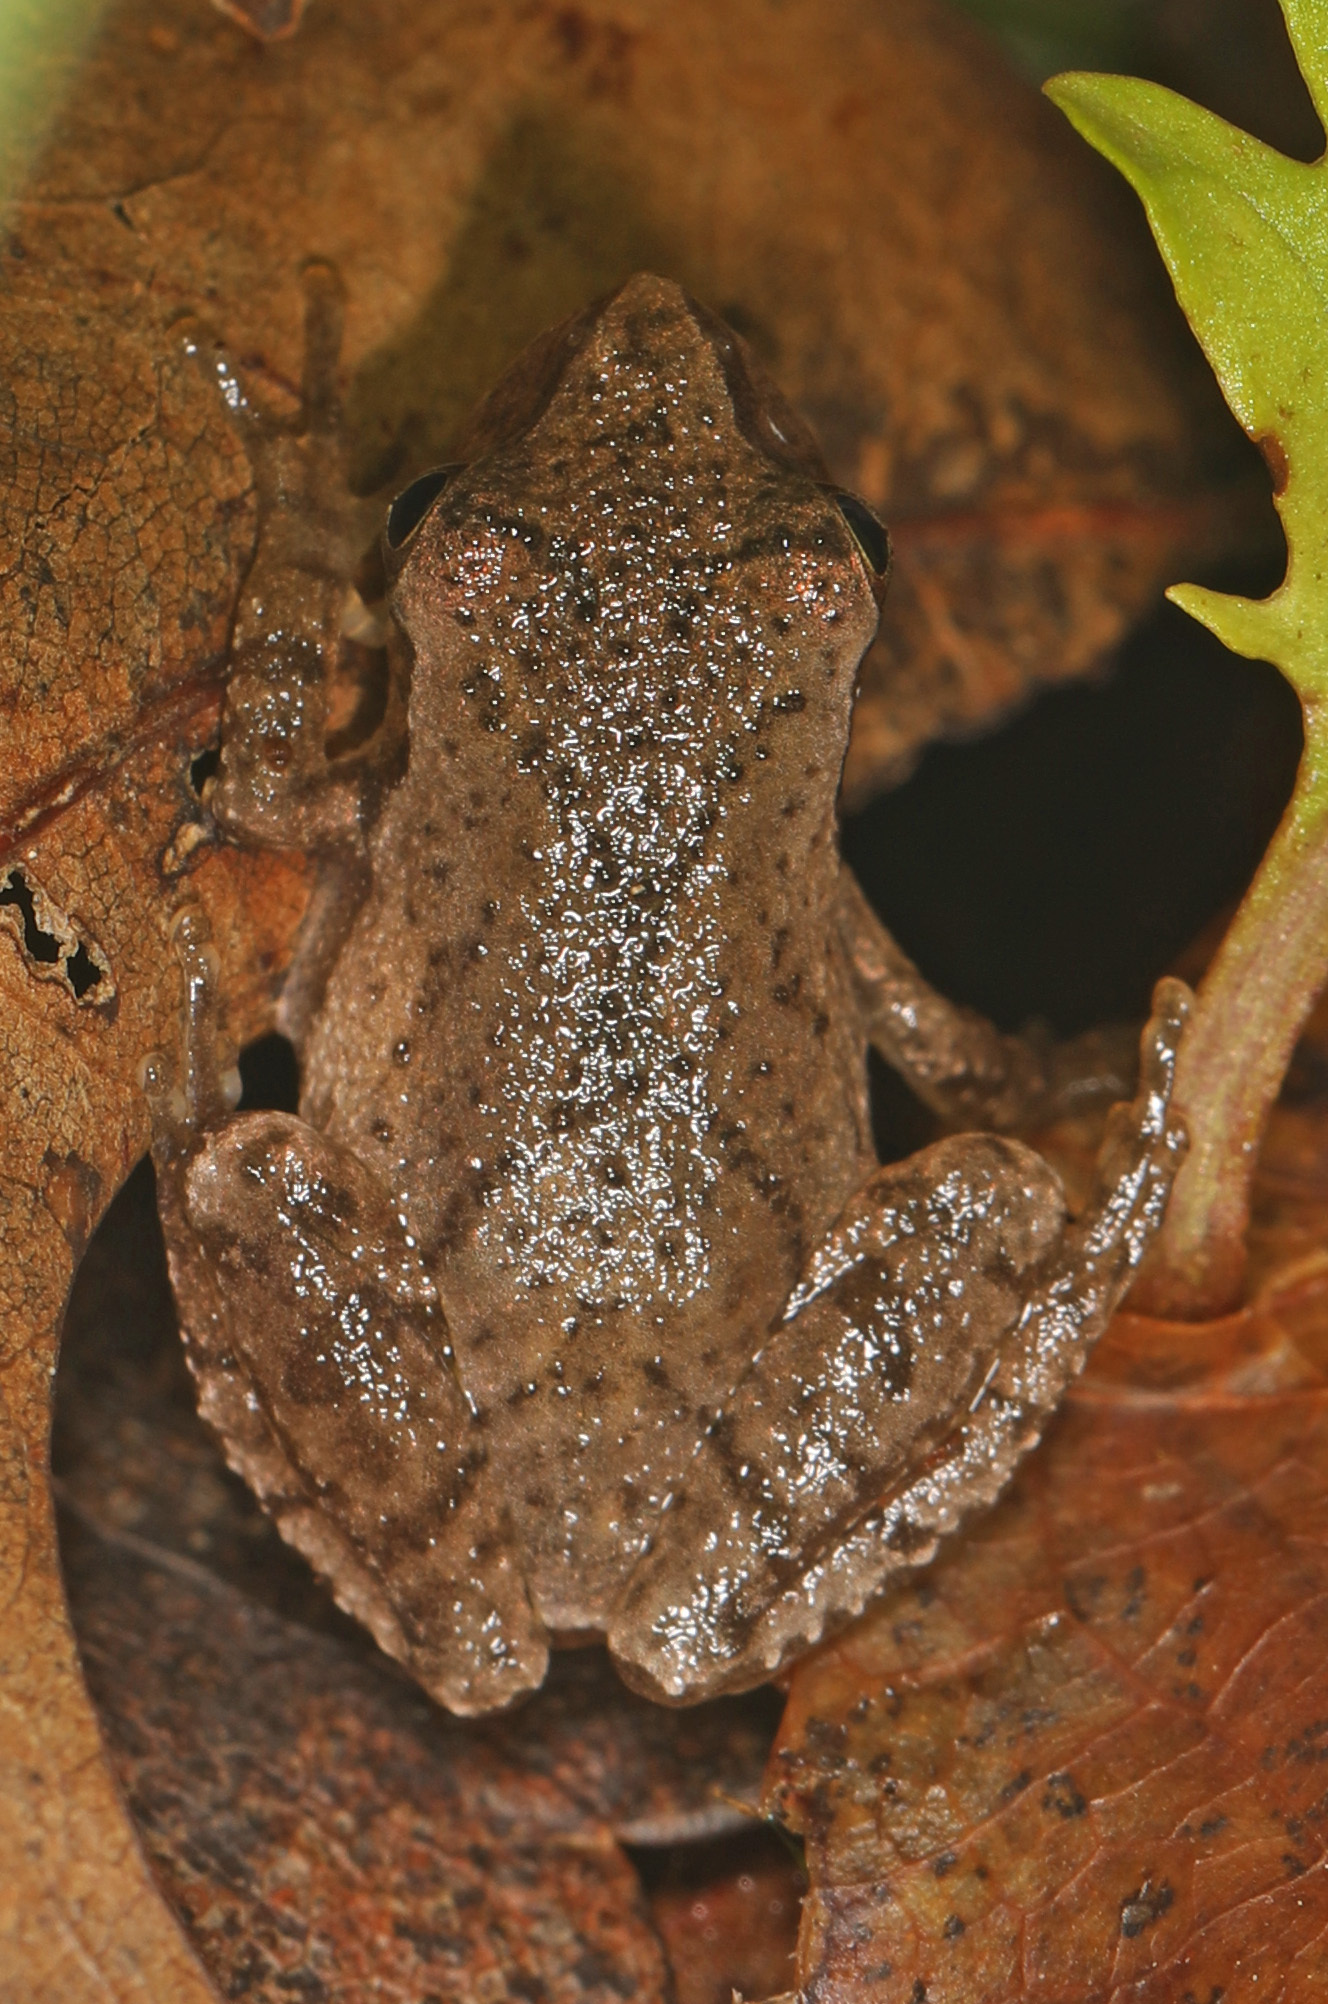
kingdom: Animalia
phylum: Chordata
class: Amphibia
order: Anura
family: Hylidae
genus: Pseudacris
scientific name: Pseudacris crucifer
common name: Spring peeper
